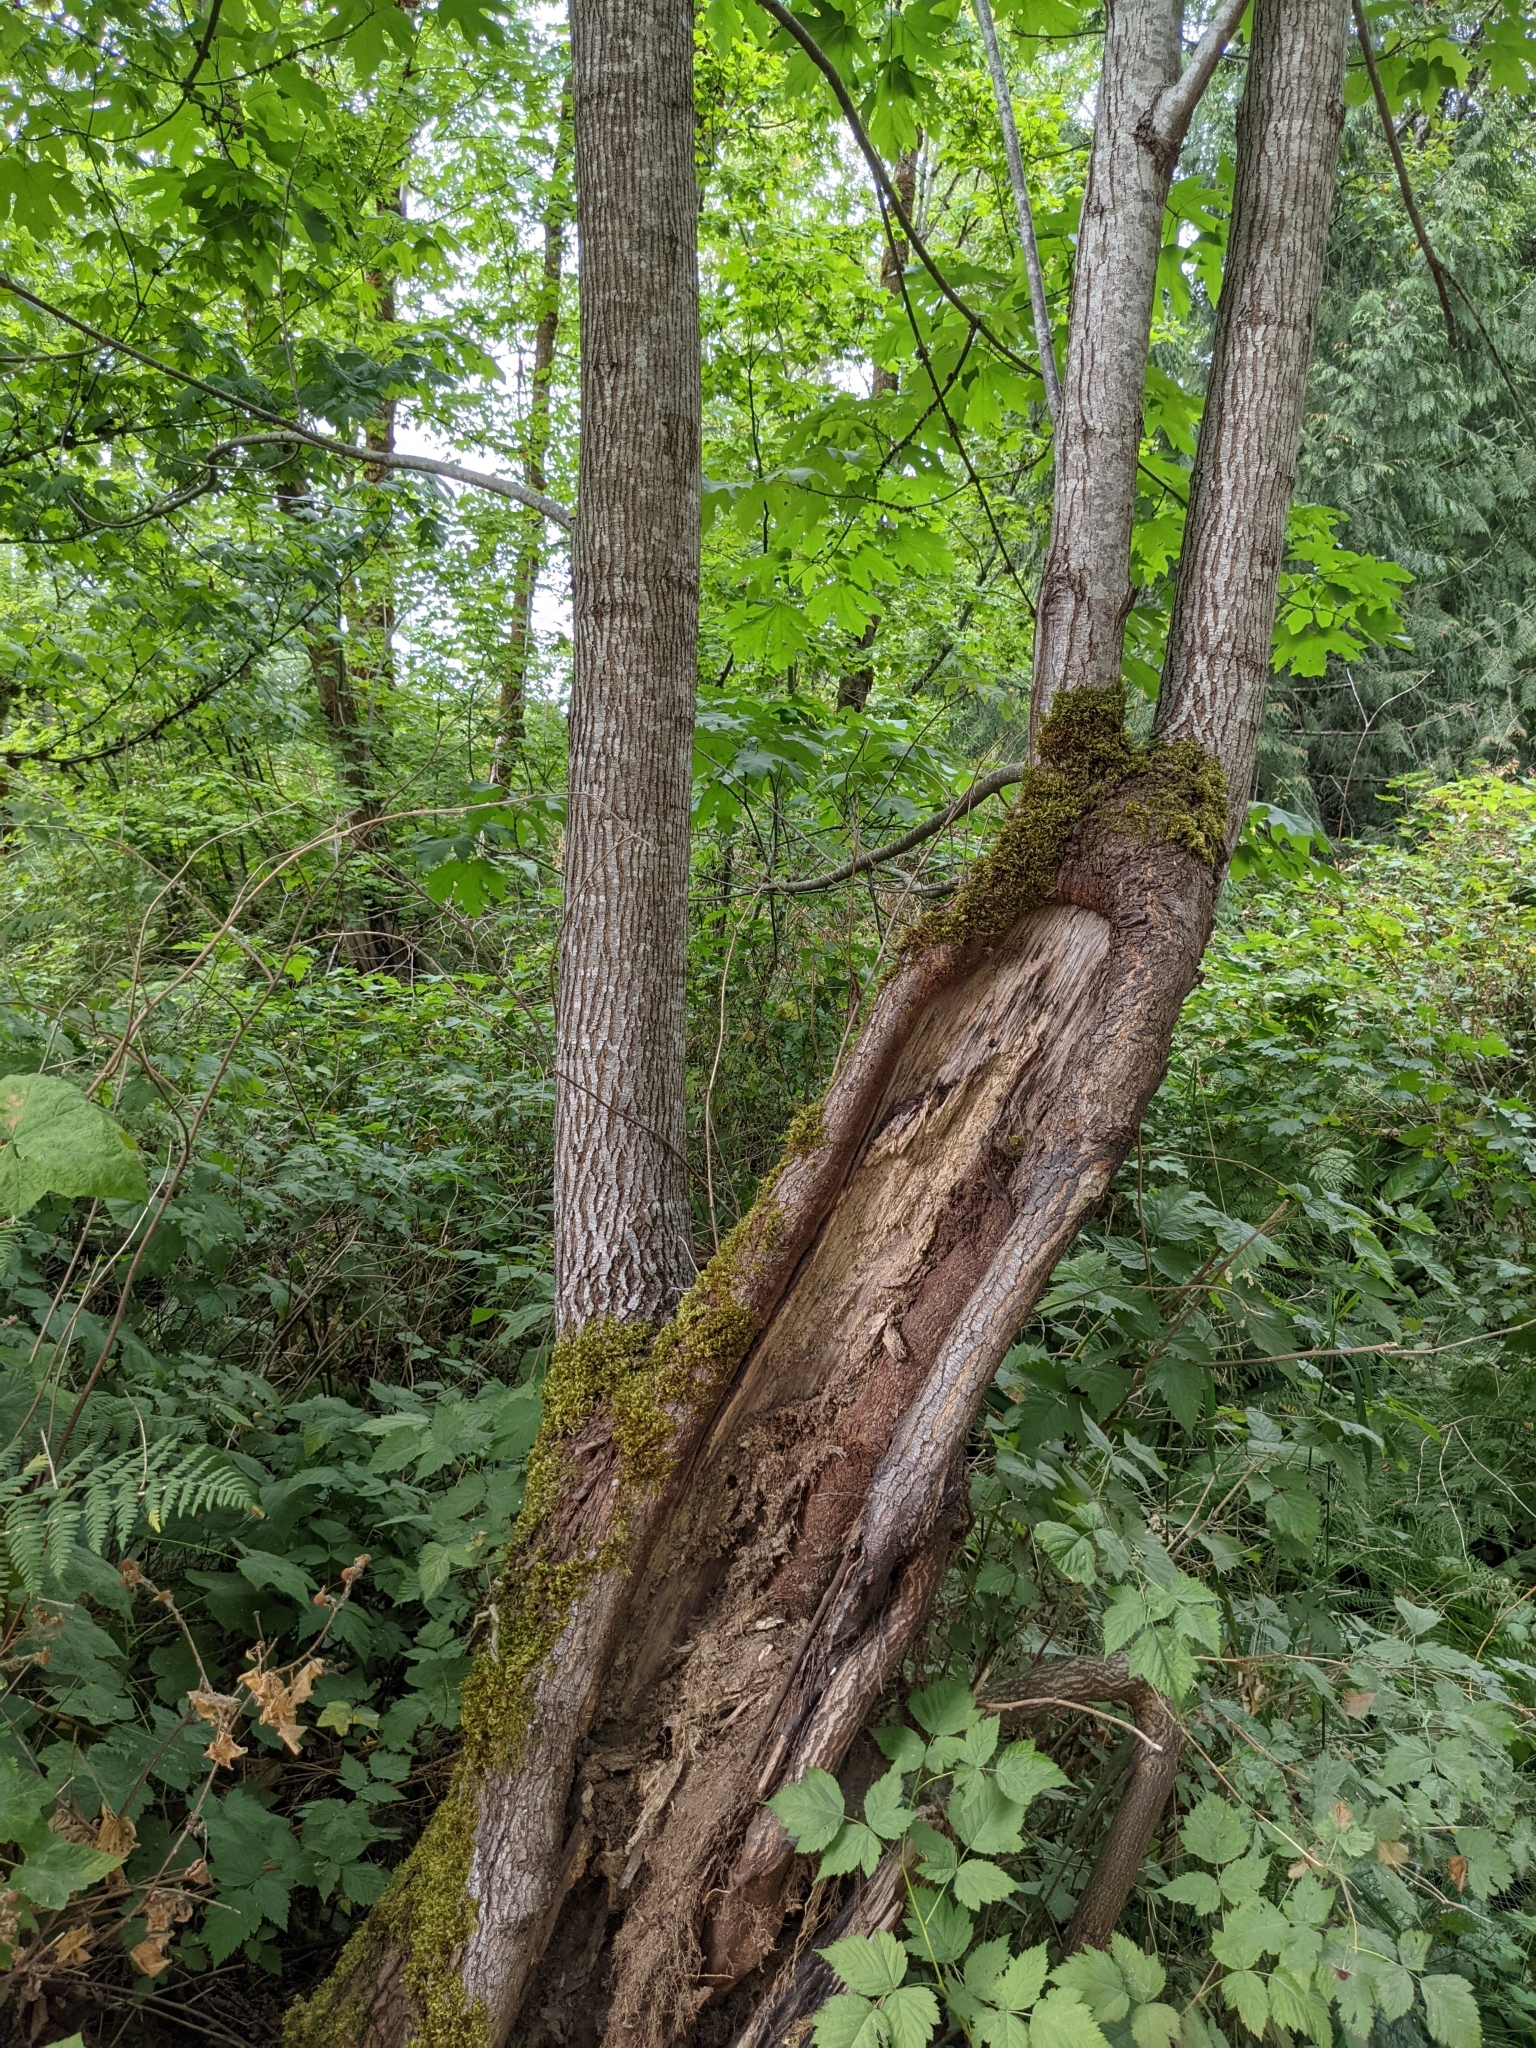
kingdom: Plantae
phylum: Tracheophyta
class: Magnoliopsida
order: Sapindales
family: Sapindaceae
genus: Acer
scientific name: Acer macrophyllum
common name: Oregon maple
